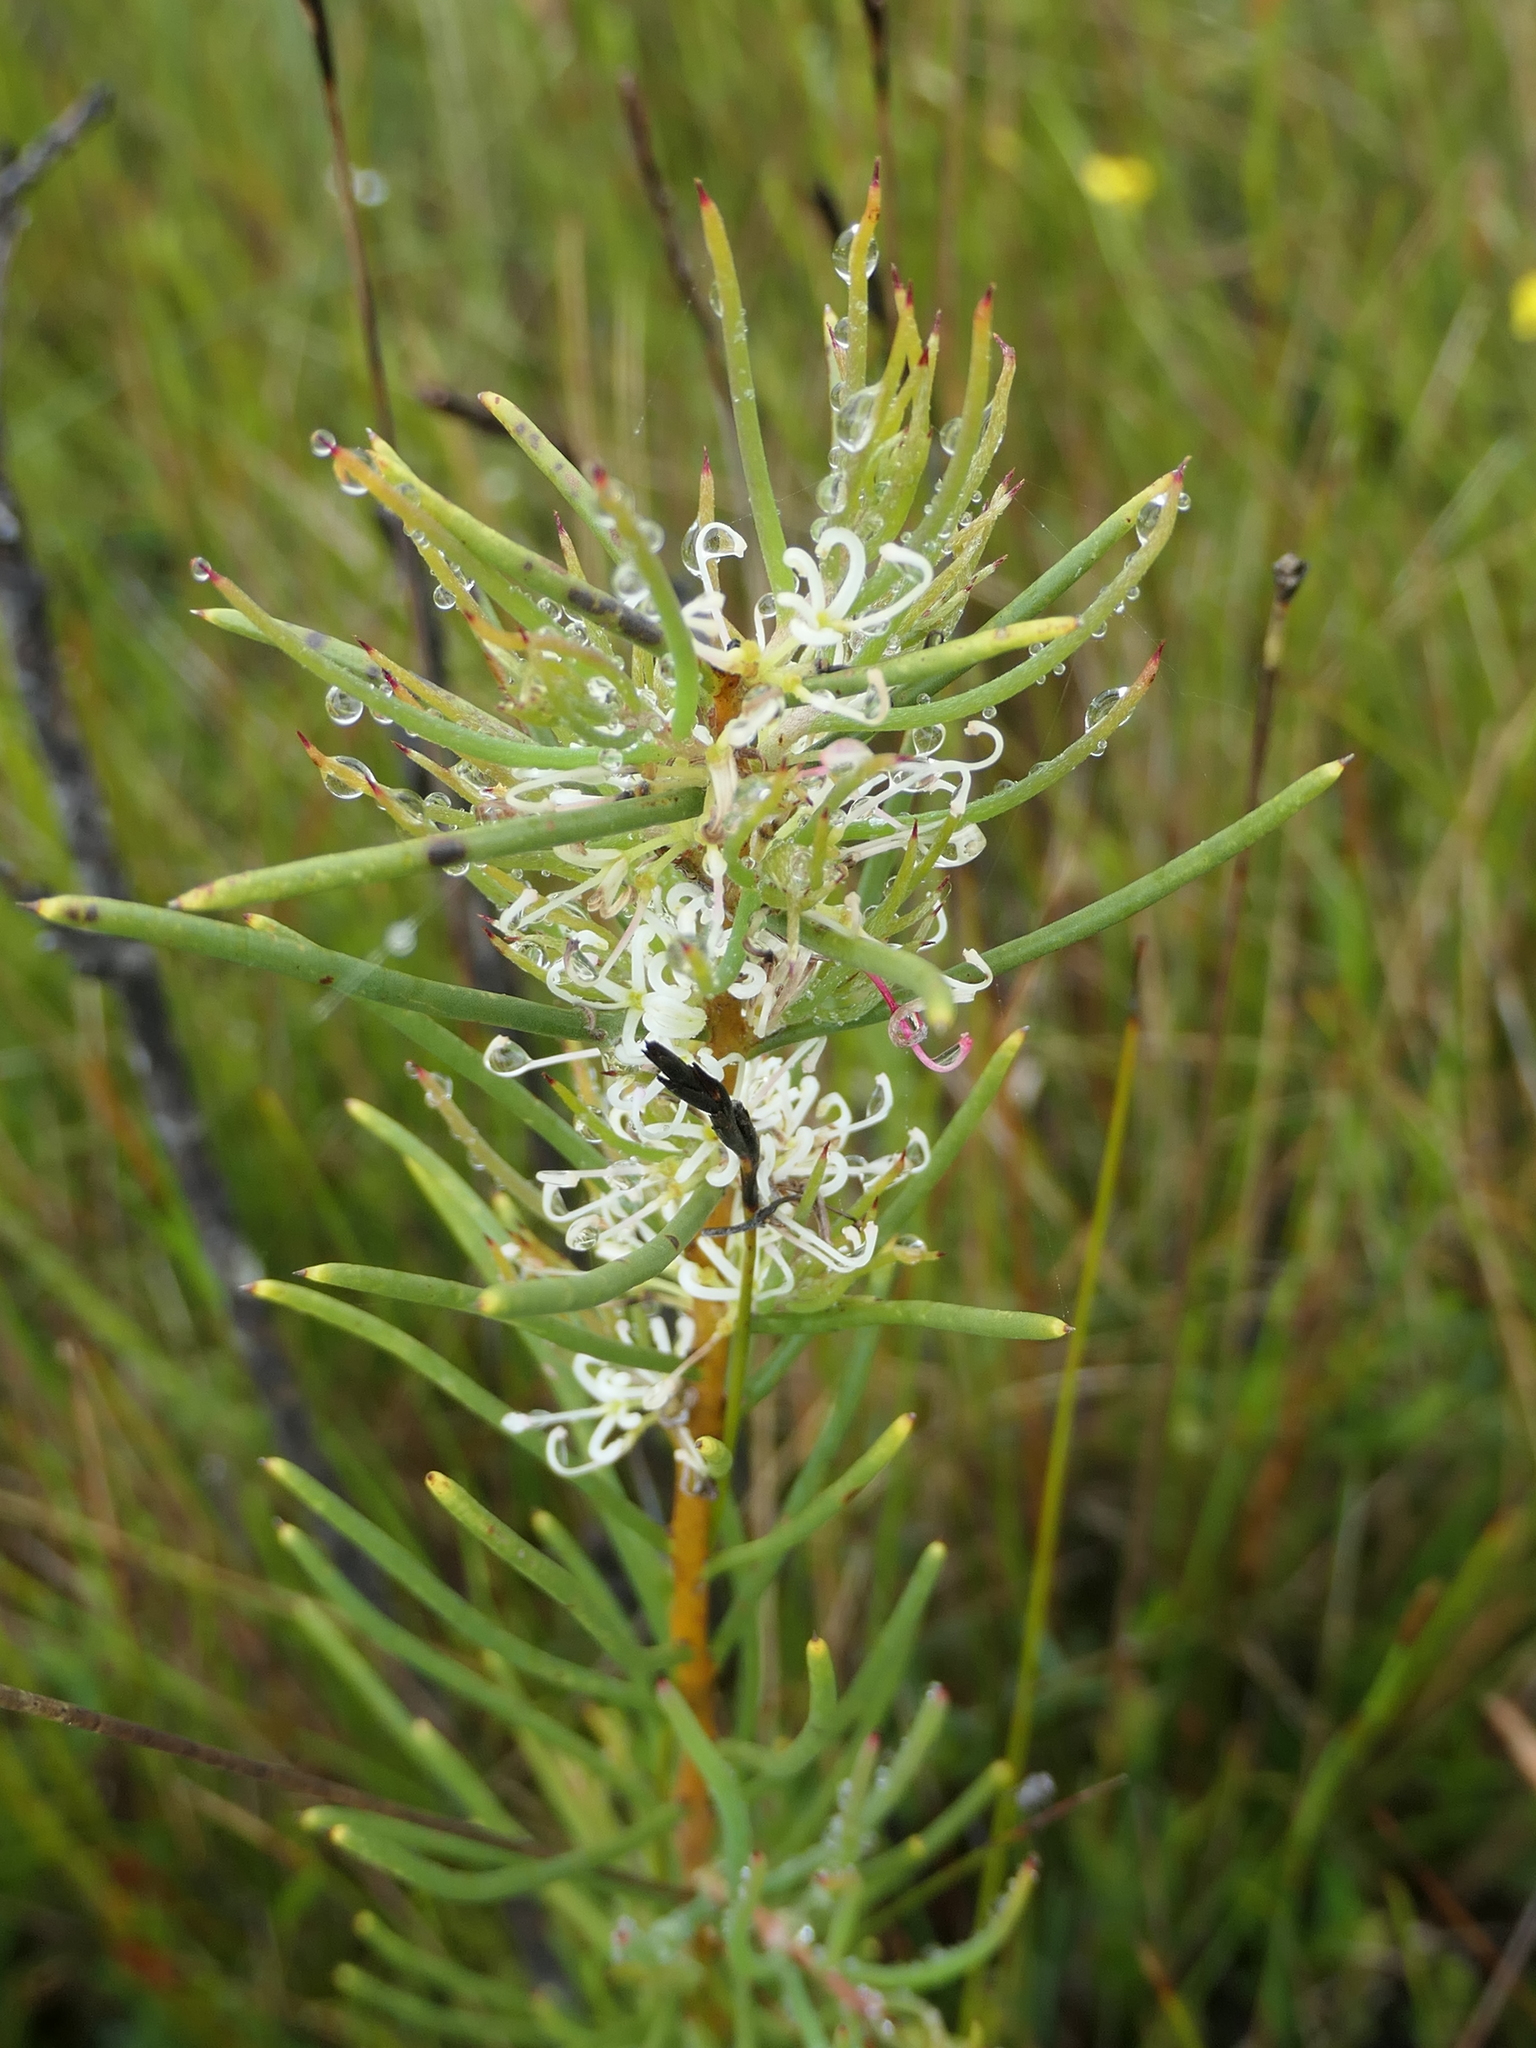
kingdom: Plantae
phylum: Tracheophyta
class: Magnoliopsida
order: Proteales
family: Proteaceae
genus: Hakea
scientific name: Hakea teretifolia
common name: Dagger hakea
